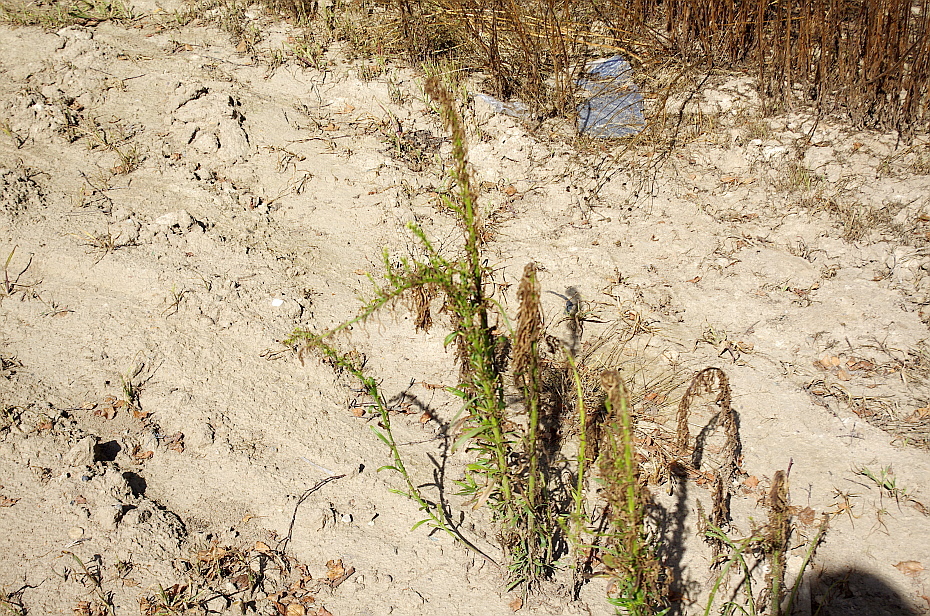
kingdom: Plantae
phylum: Tracheophyta
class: Magnoliopsida
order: Asterales
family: Asteraceae
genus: Erigeron
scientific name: Erigeron canadensis
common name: Canadian fleabane
